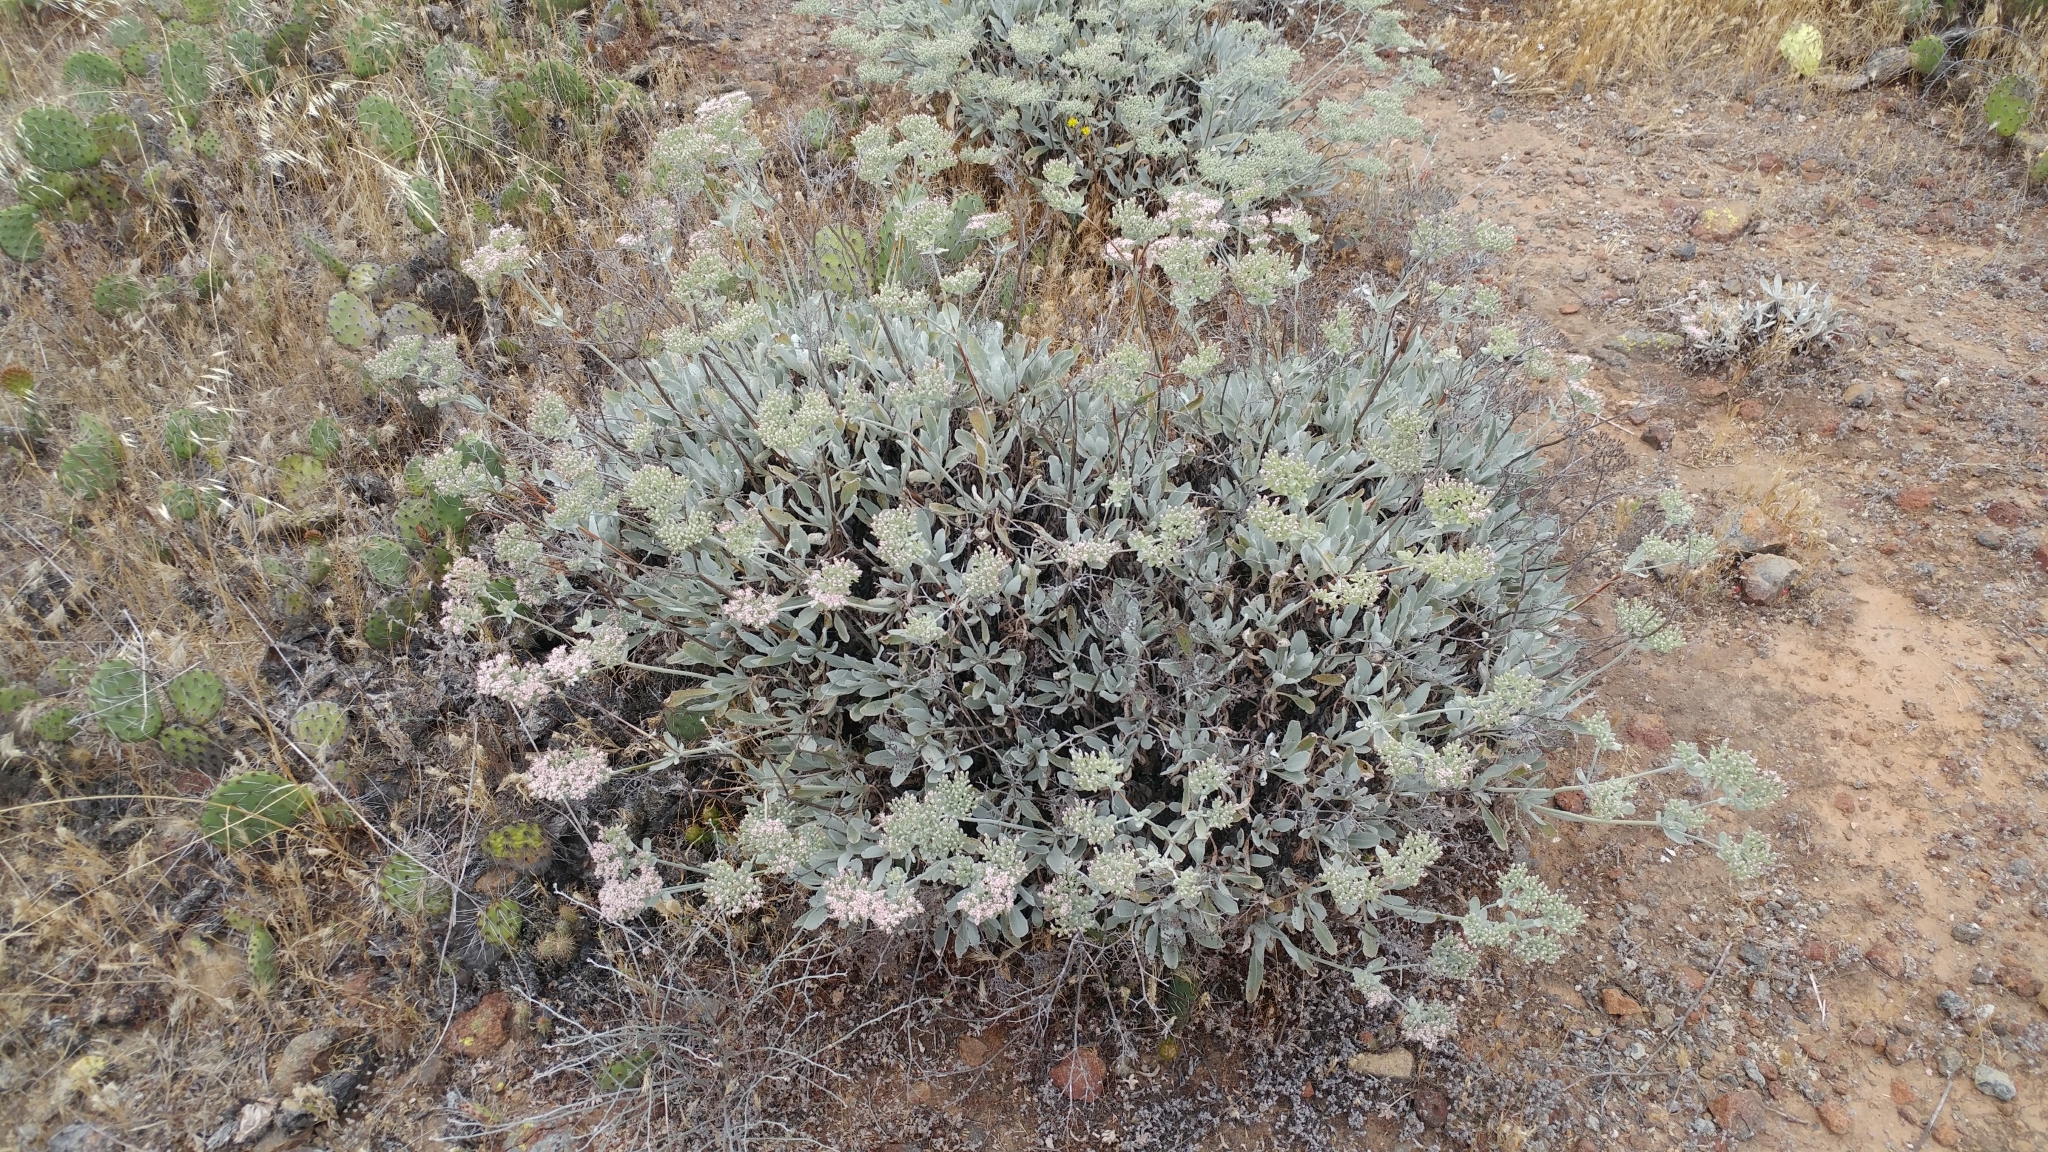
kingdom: Plantae
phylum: Tracheophyta
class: Magnoliopsida
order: Caryophyllales
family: Polygonaceae
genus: Eriogonum
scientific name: Eriogonum giganteum
